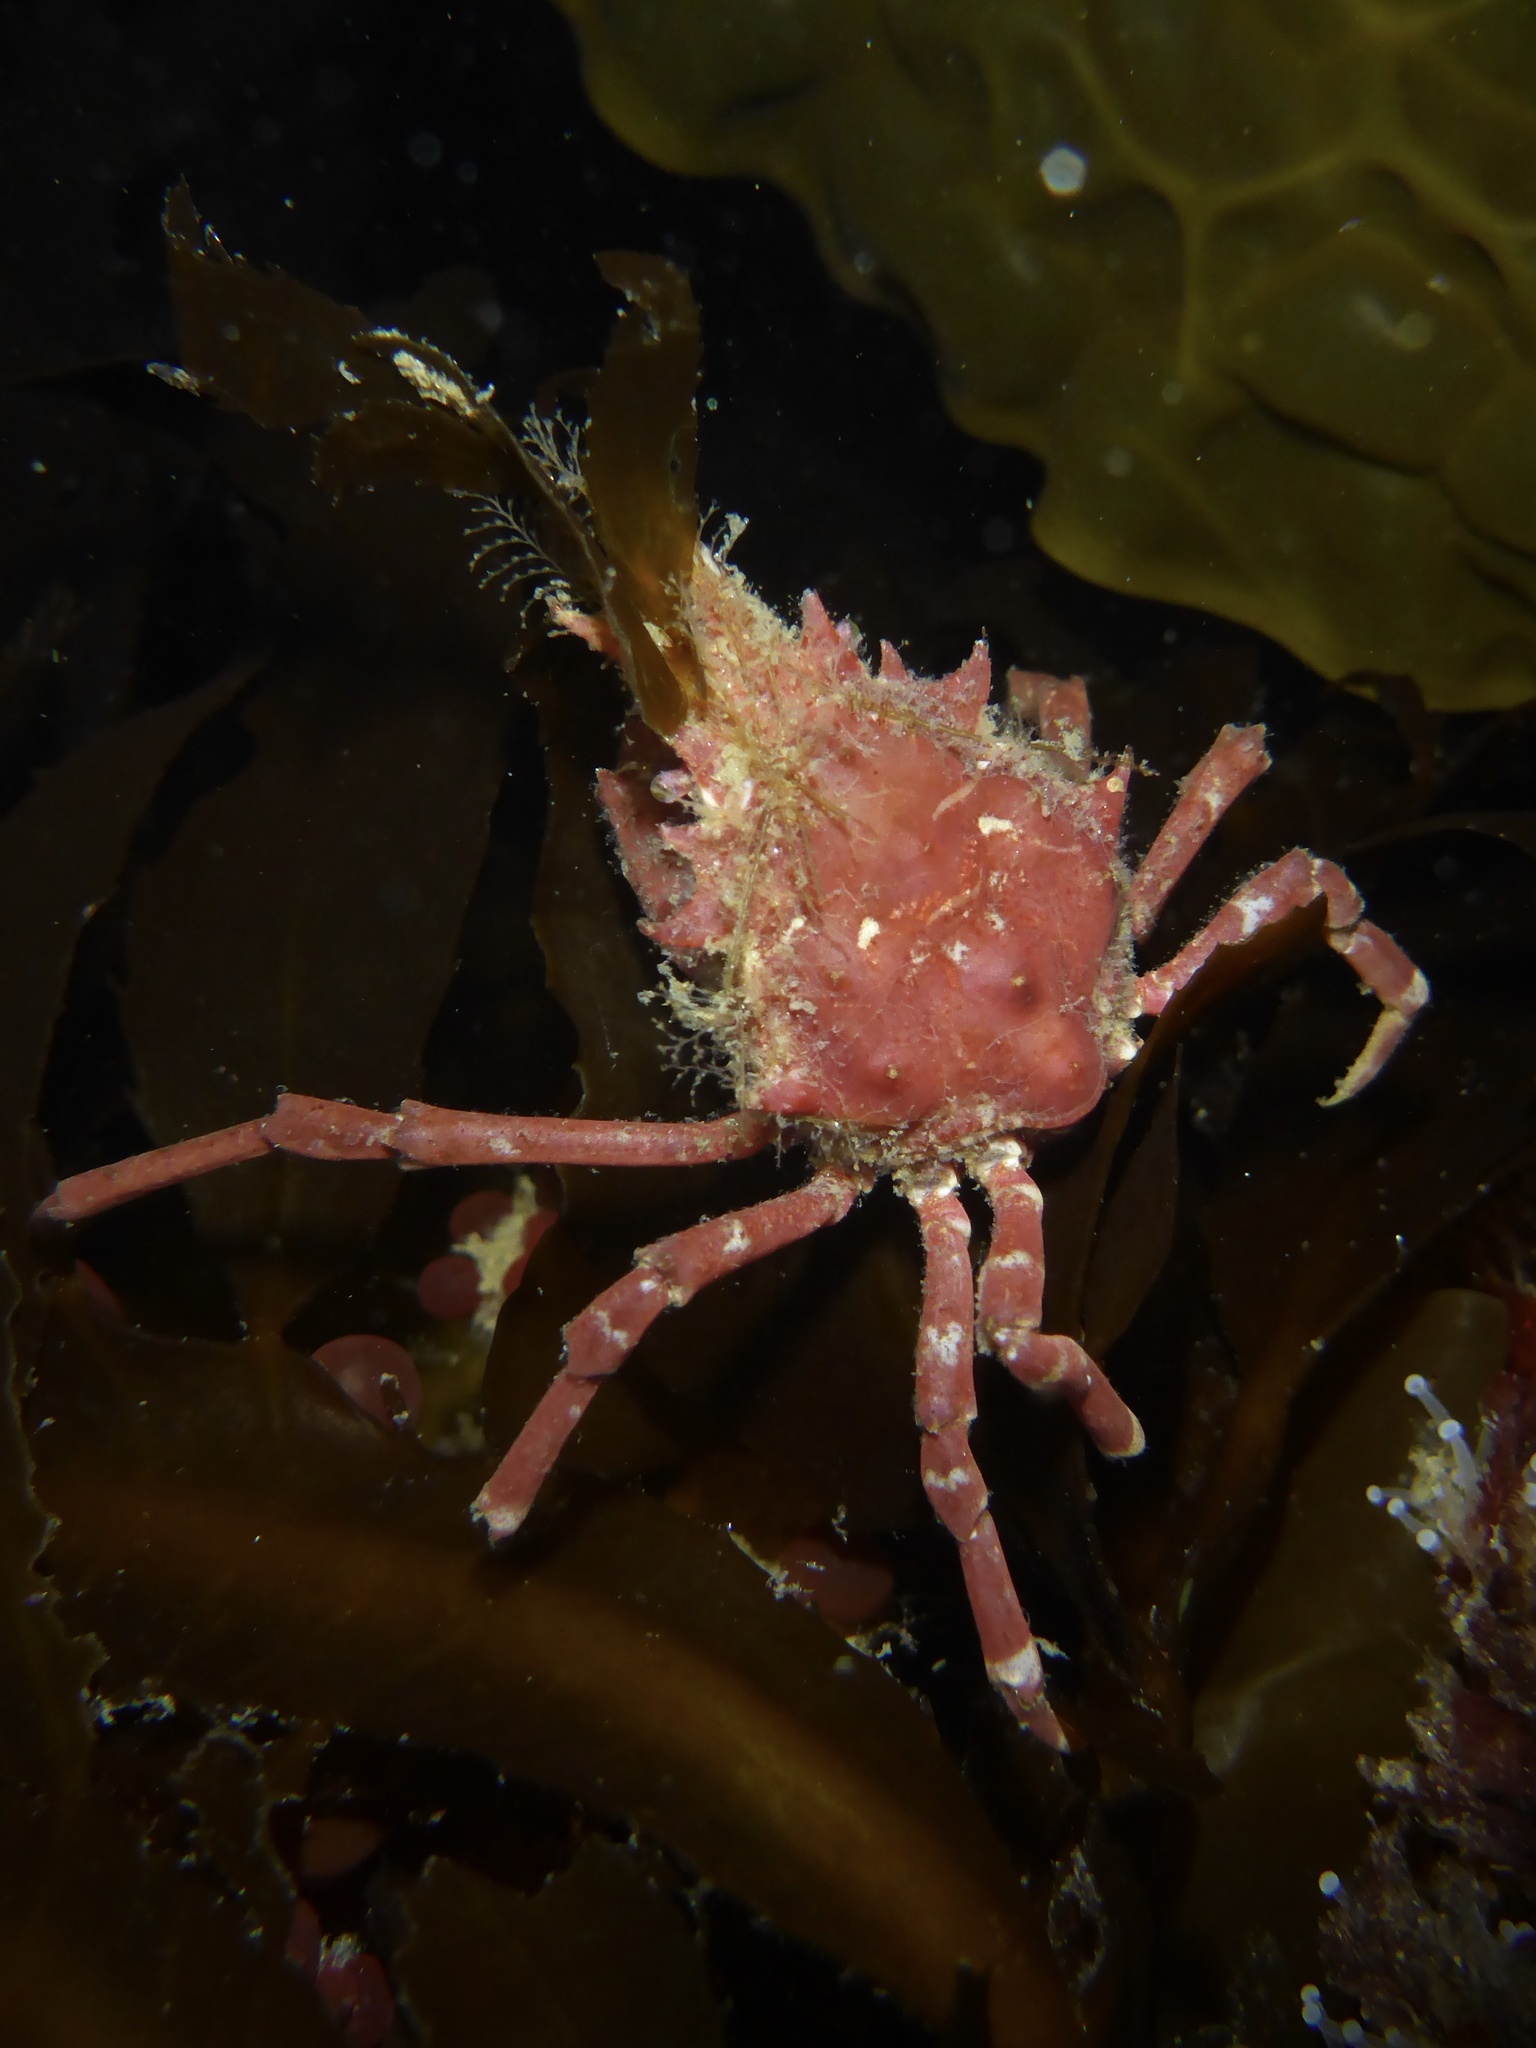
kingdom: Animalia
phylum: Arthropoda
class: Malacostraca
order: Decapoda
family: Epialtidae
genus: Pugettia
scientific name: Pugettia richii
